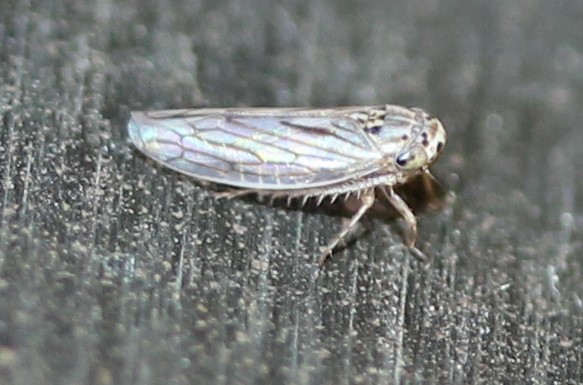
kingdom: Animalia
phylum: Arthropoda
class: Insecta
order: Hemiptera
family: Cicadellidae
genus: Exitianus
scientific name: Exitianus exitiosus
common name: Gray lawn leafhopper
